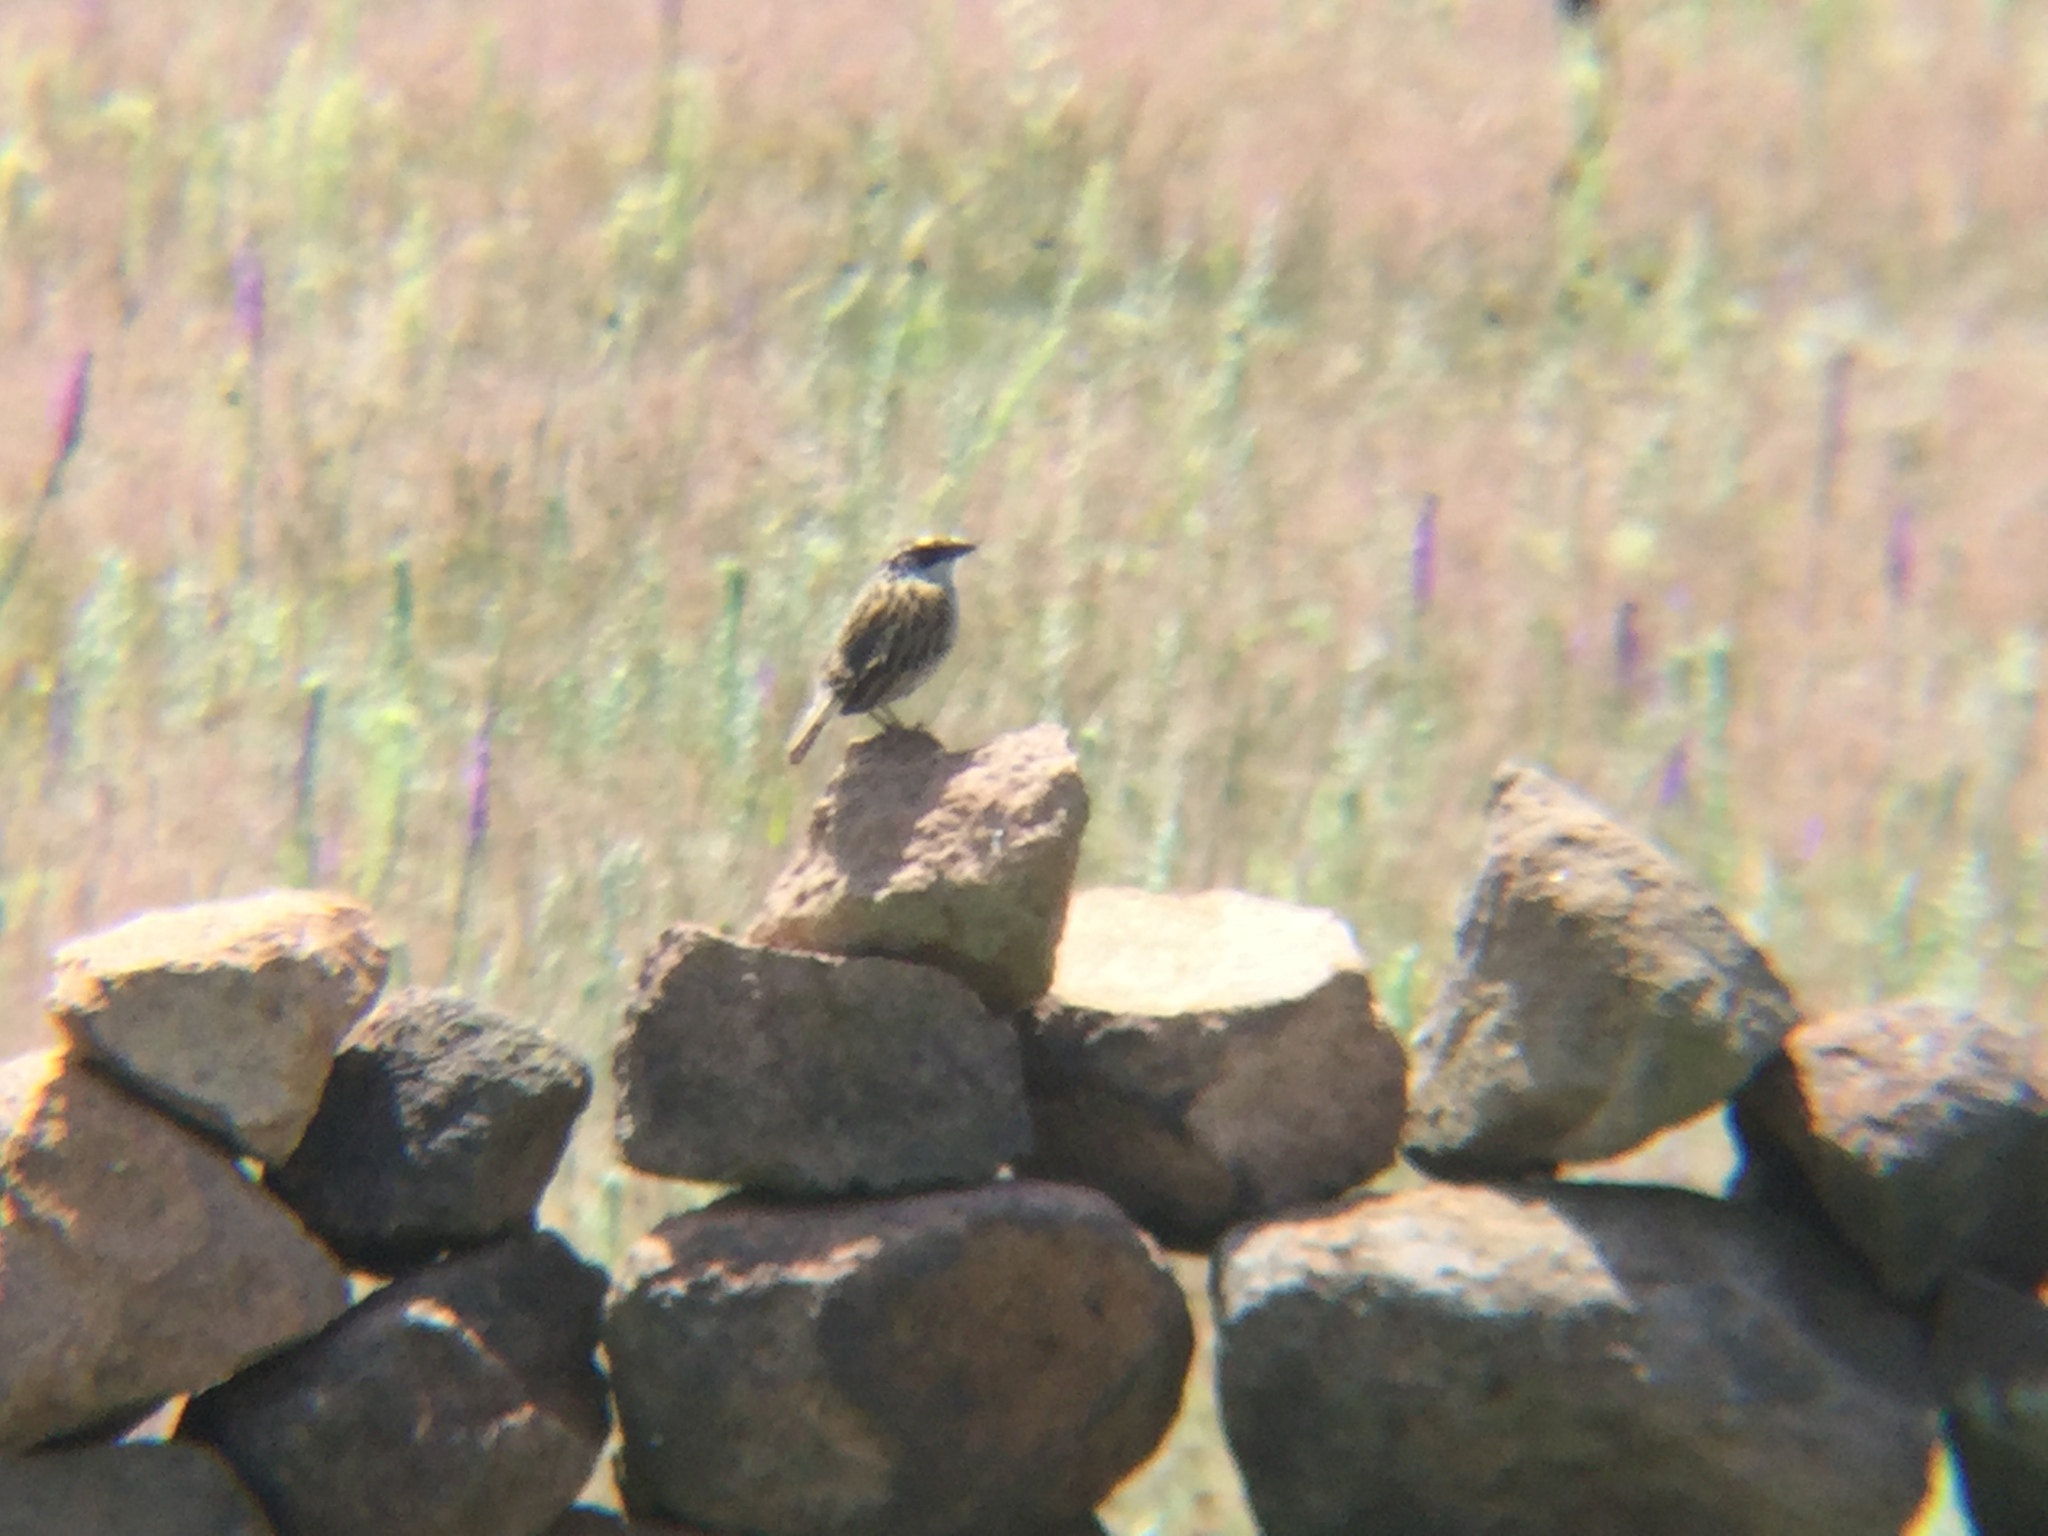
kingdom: Animalia
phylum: Chordata
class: Aves
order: Passeriformes
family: Passerellidae
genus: Oriturus
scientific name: Oriturus superciliosus
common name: Striped sparrow
